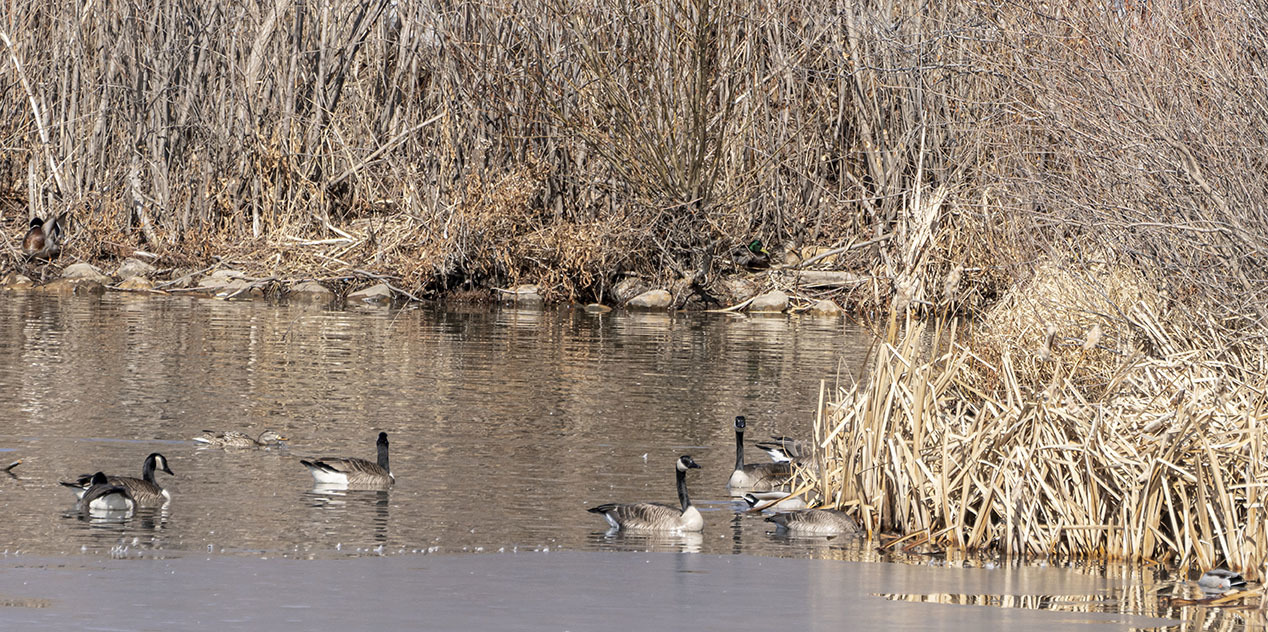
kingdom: Animalia
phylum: Chordata
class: Aves
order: Anseriformes
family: Anatidae
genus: Branta
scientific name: Branta canadensis
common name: Canada goose
